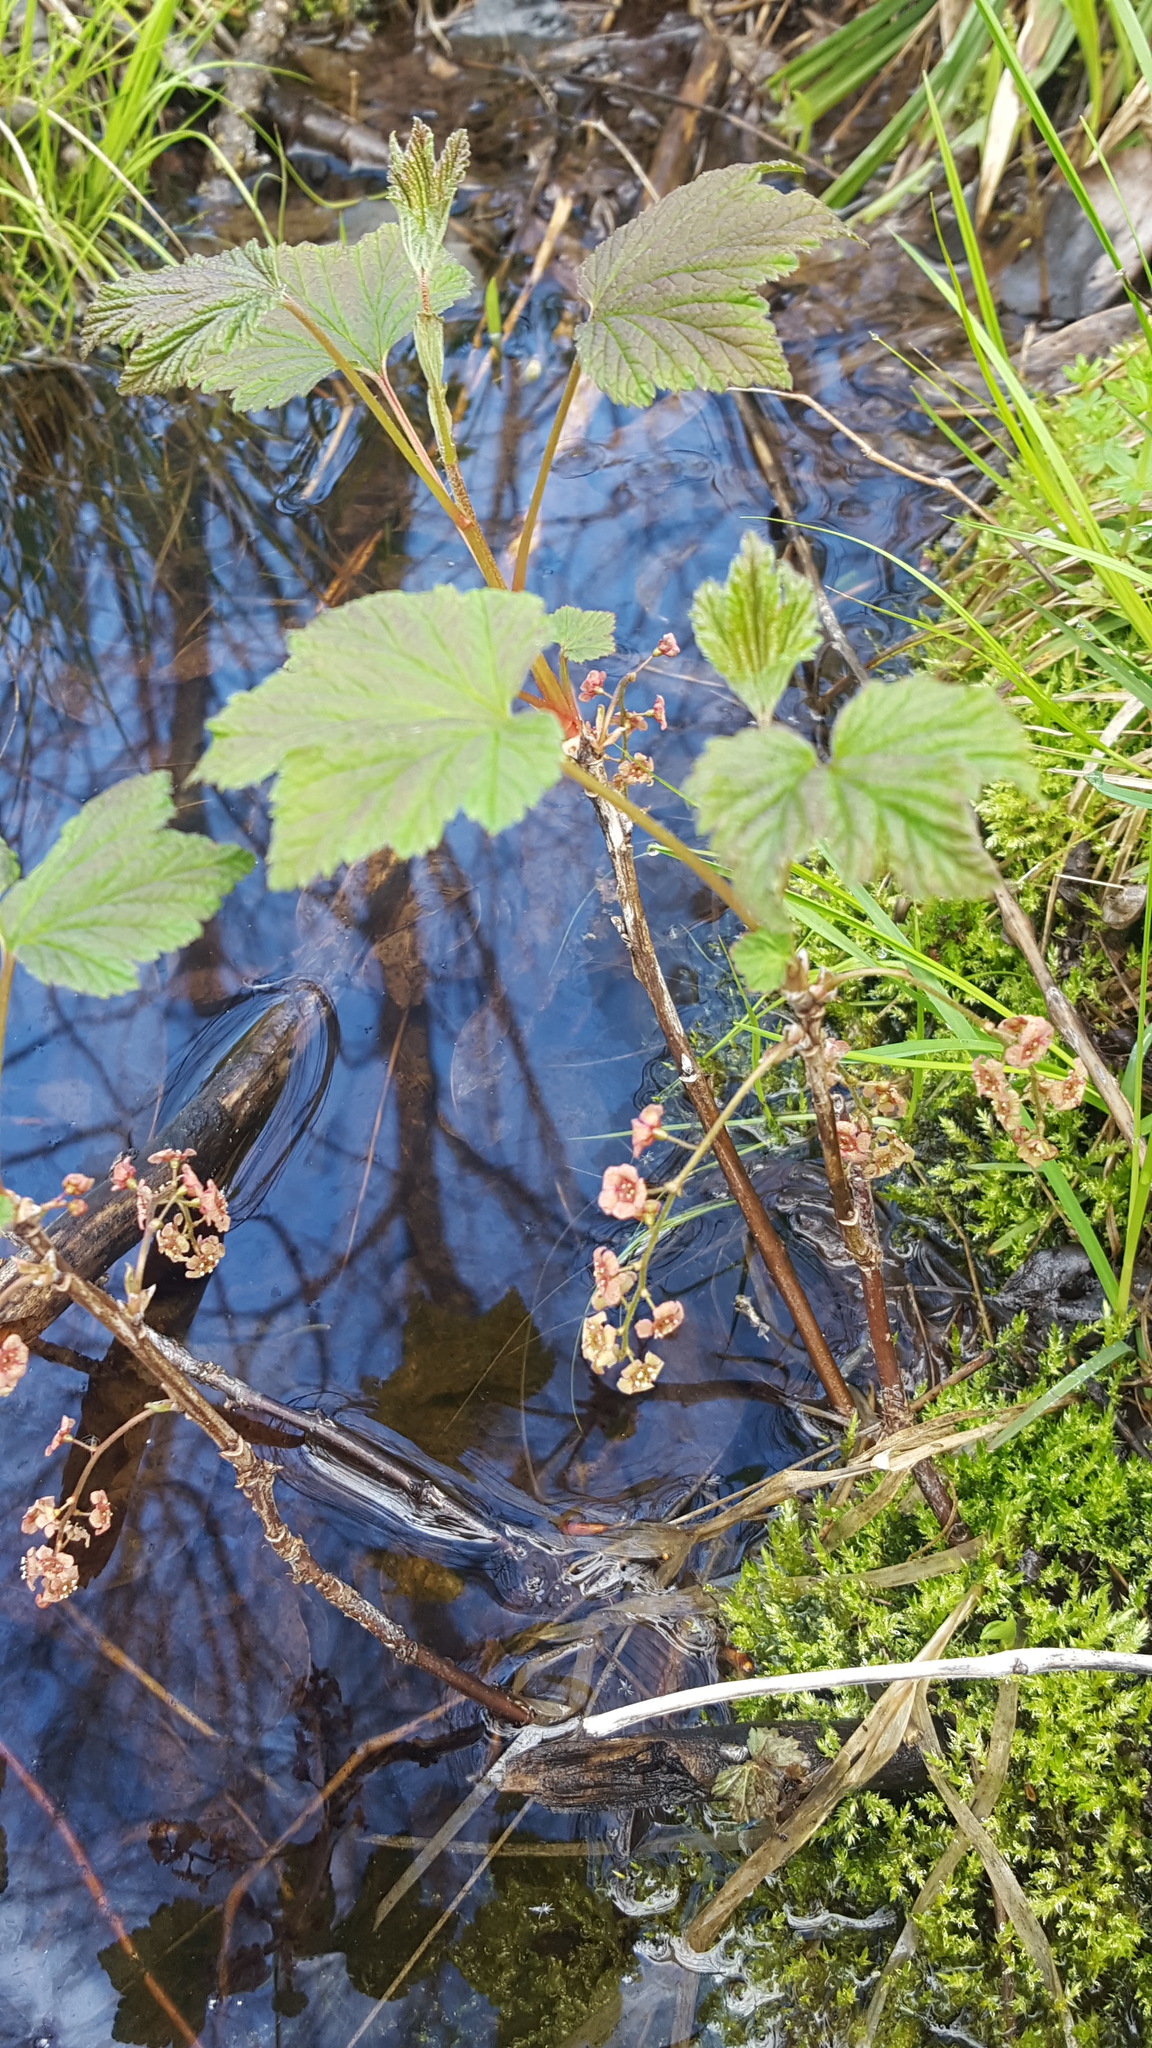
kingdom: Plantae
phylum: Tracheophyta
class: Magnoliopsida
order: Saxifragales
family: Grossulariaceae
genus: Ribes
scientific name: Ribes triste
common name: Swamp red currant
